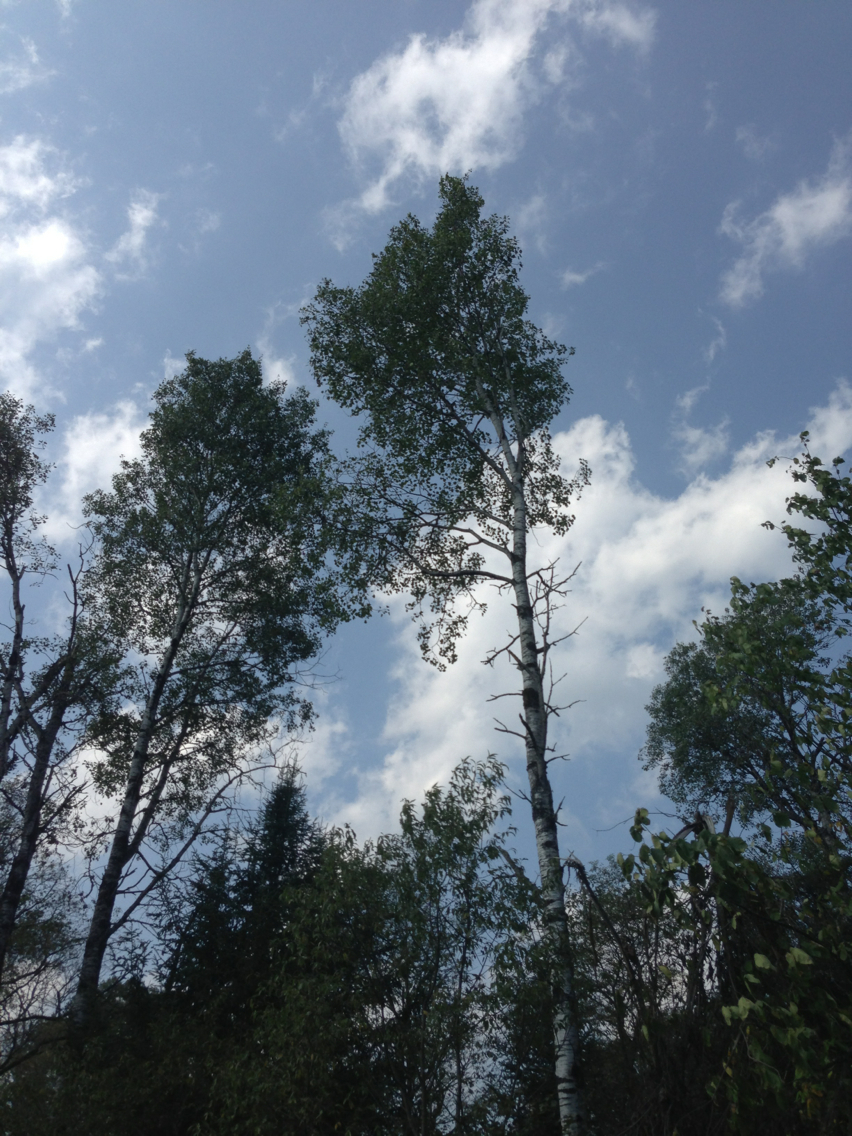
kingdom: Plantae
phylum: Tracheophyta
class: Magnoliopsida
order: Malpighiales
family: Salicaceae
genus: Populus
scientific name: Populus tremuloides
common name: Quaking aspen
